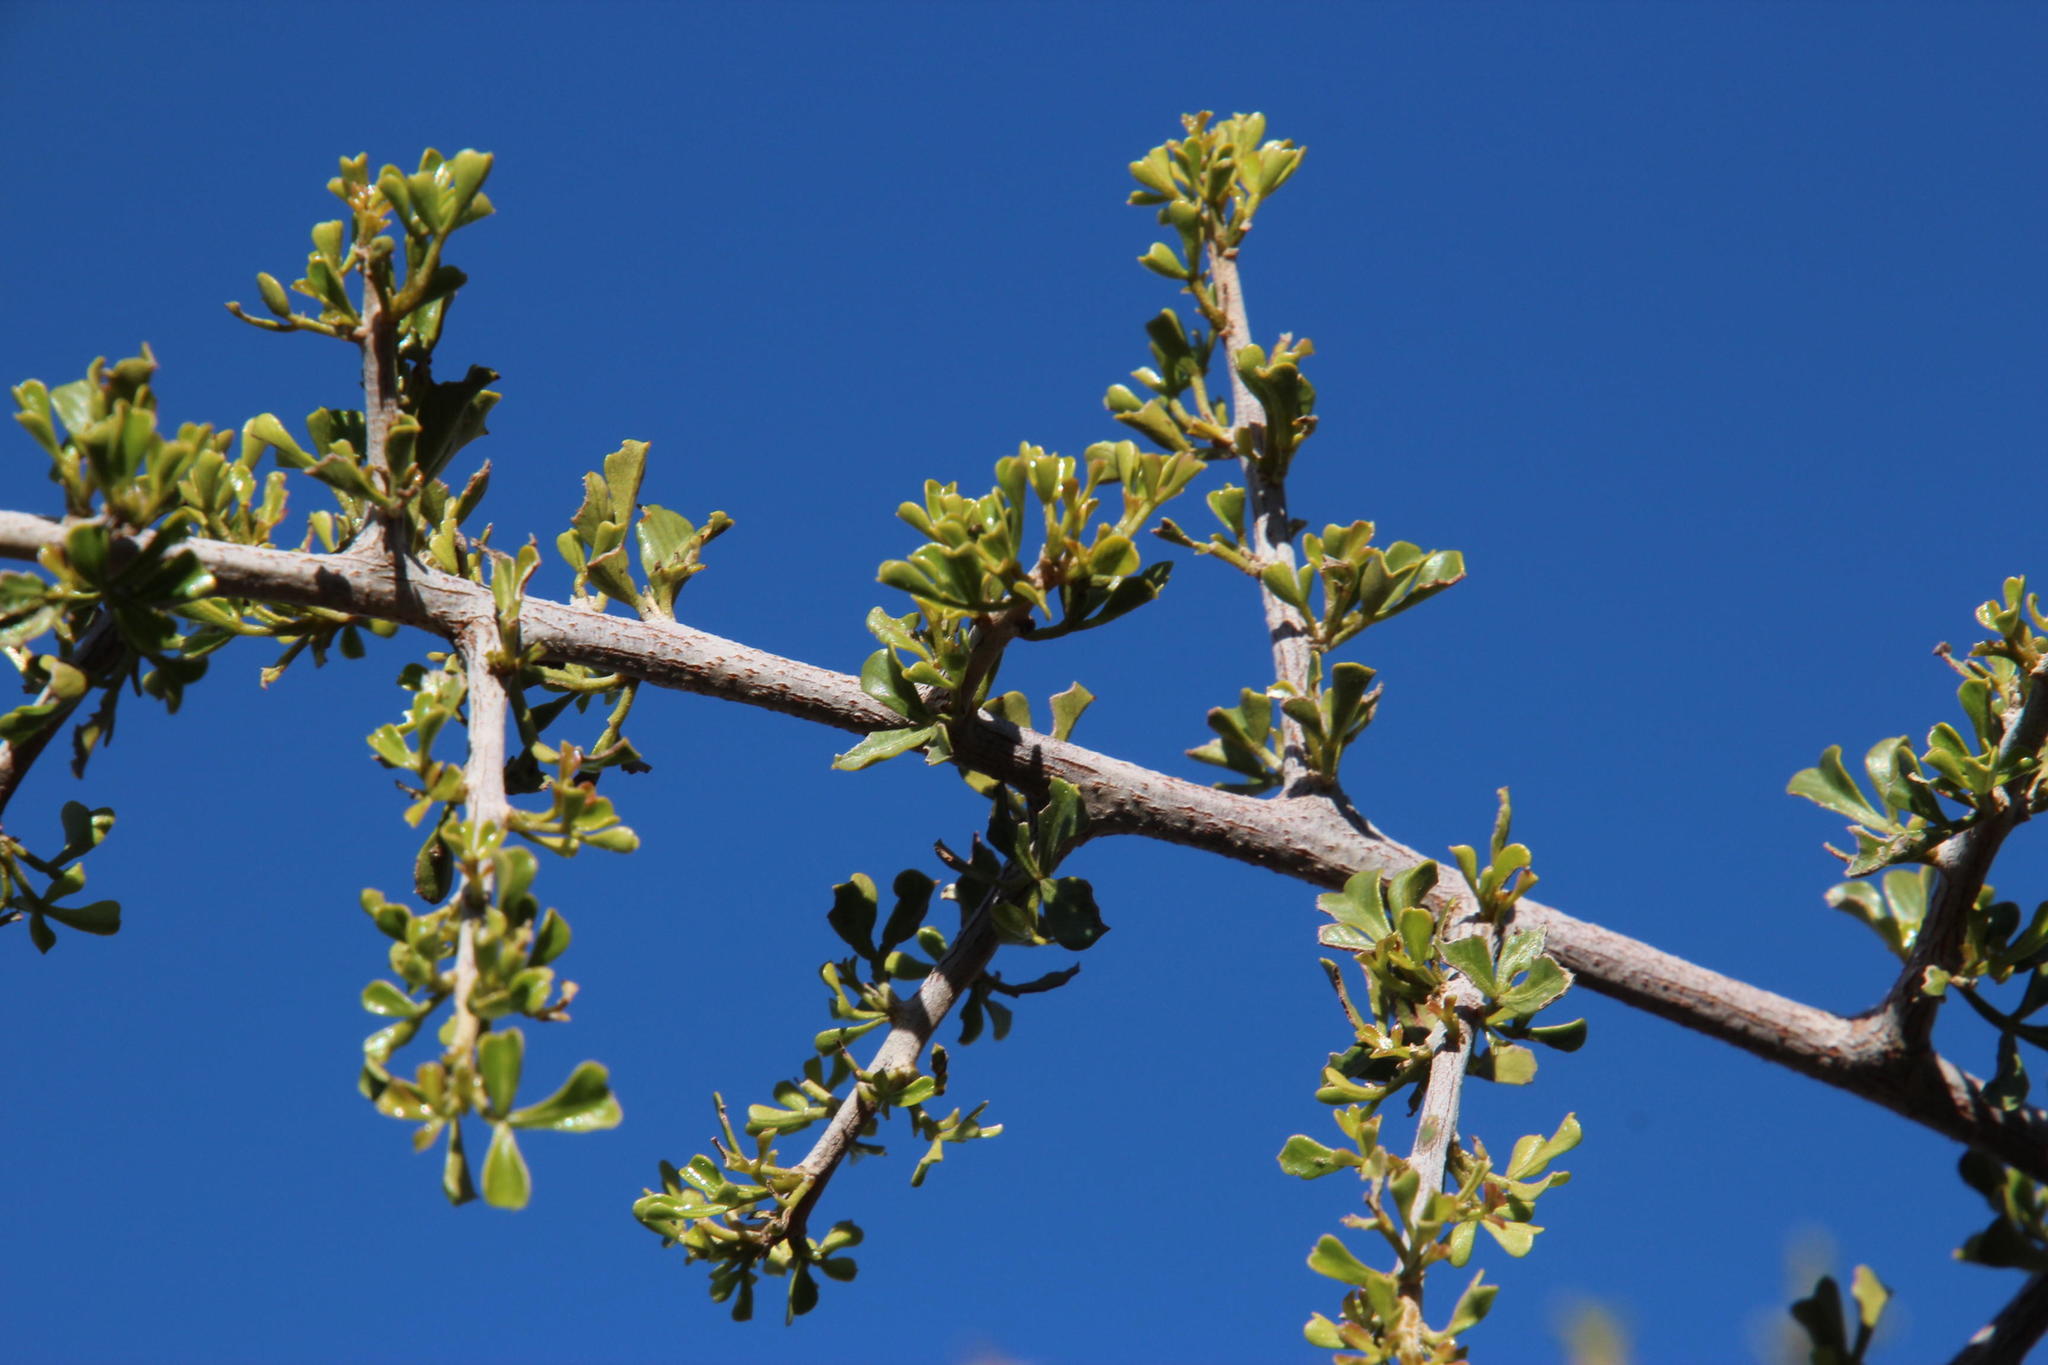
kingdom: Plantae
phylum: Tracheophyta
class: Magnoliopsida
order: Sapindales
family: Anacardiaceae
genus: Searsia
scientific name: Searsia burchellii
